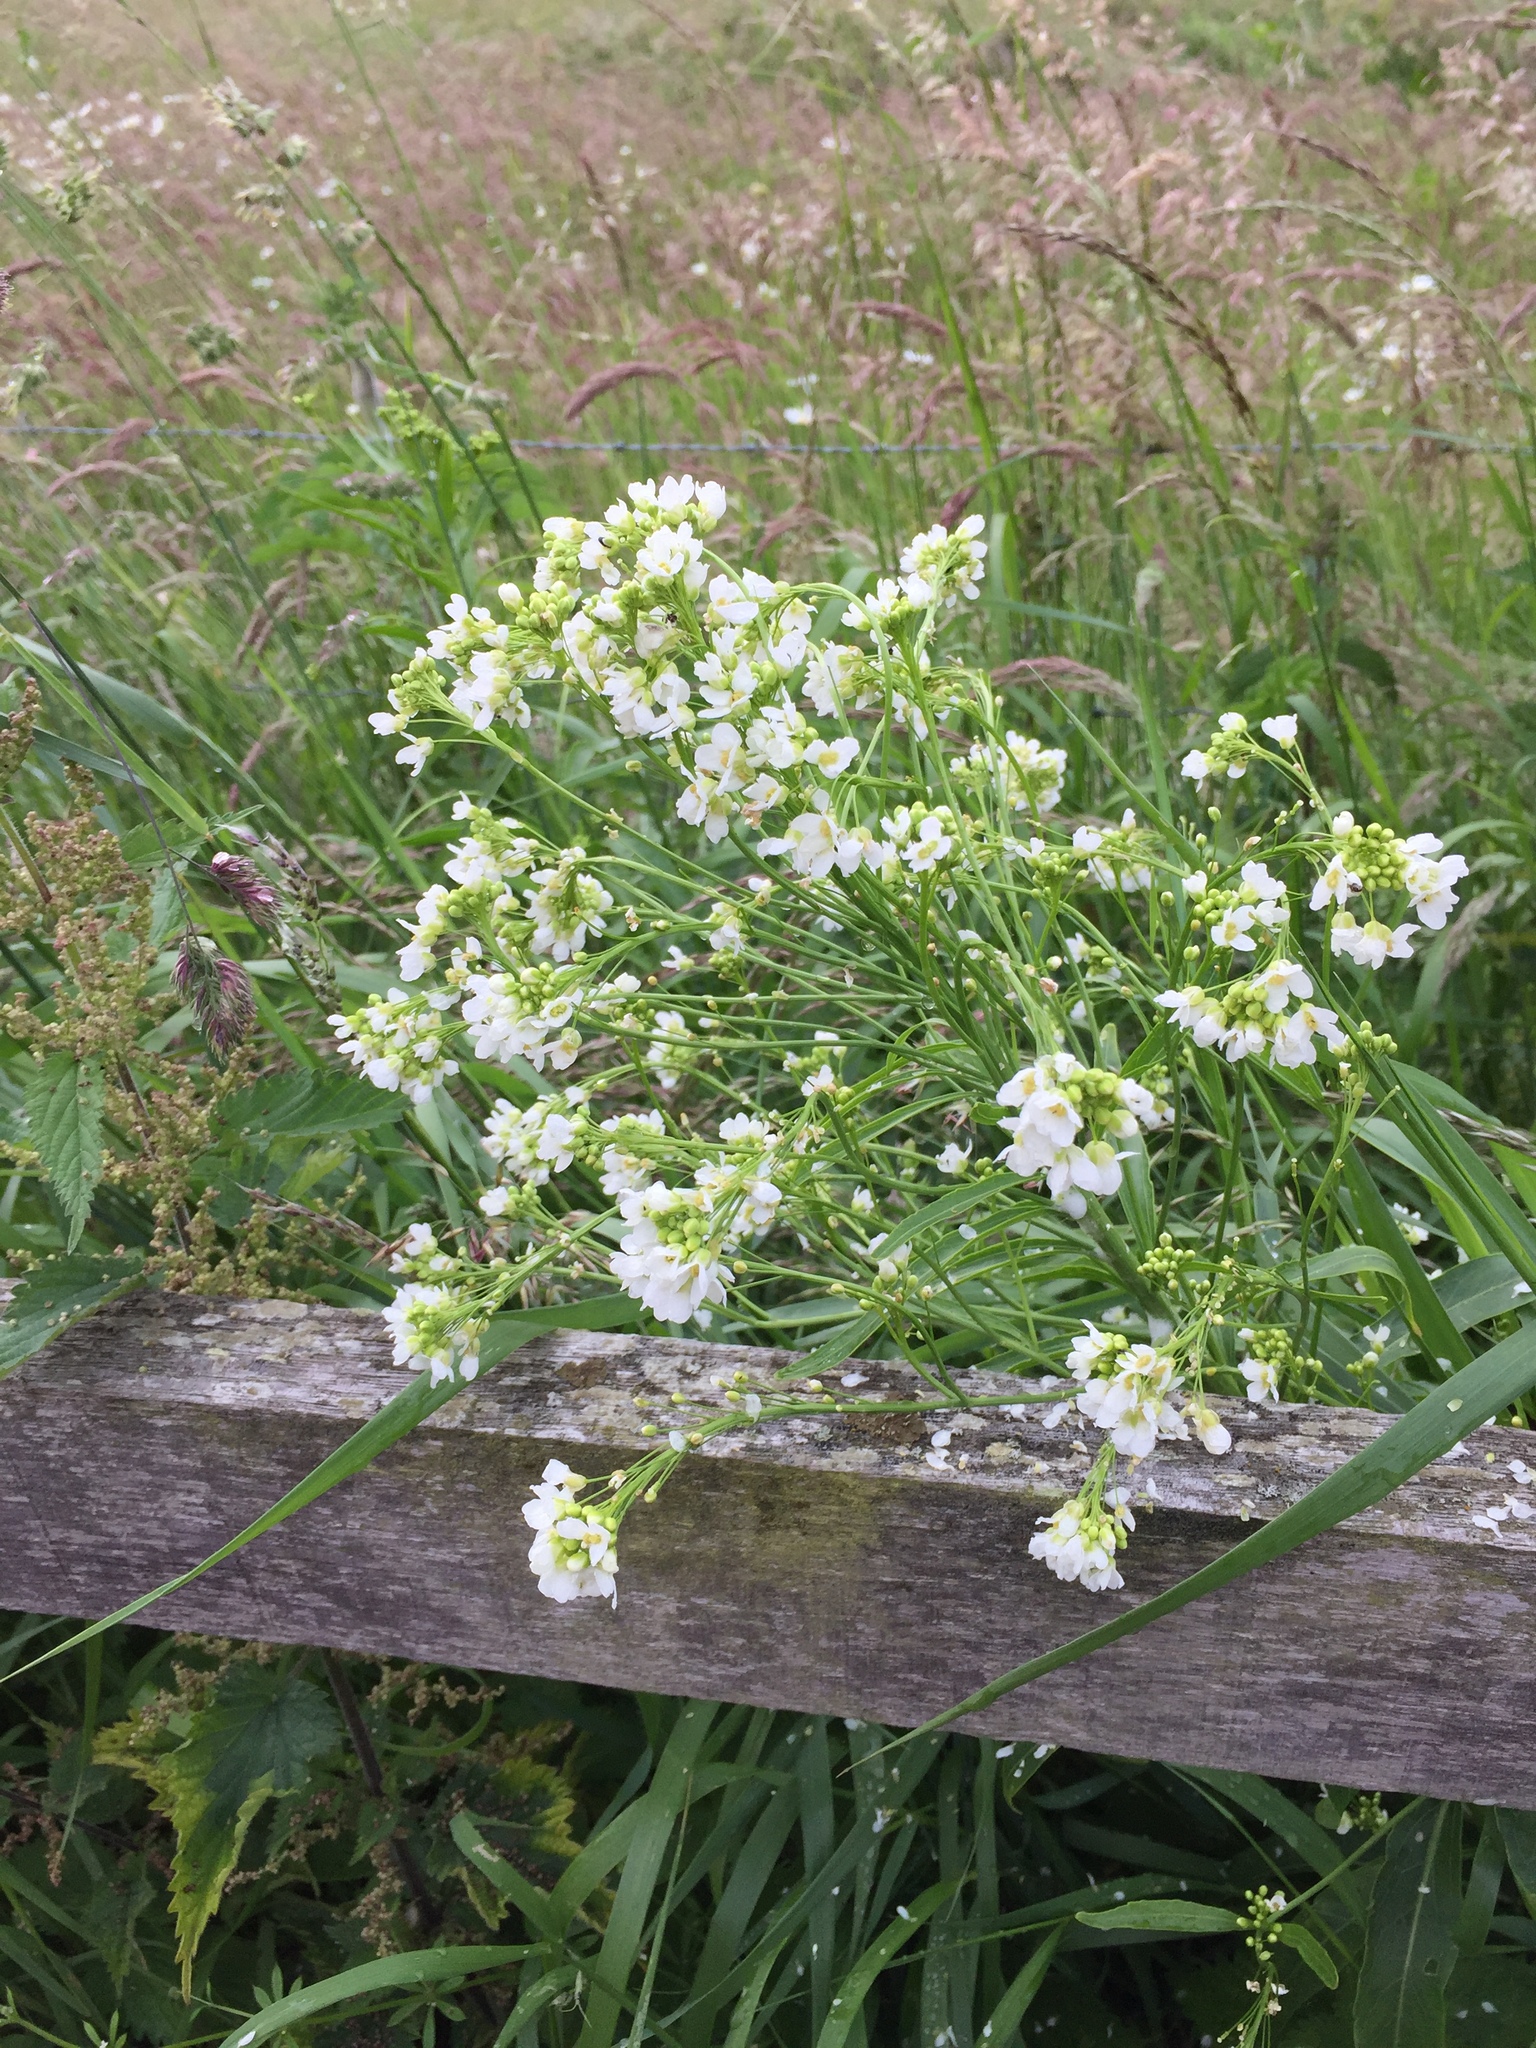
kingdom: Plantae
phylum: Tracheophyta
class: Magnoliopsida
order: Brassicales
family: Brassicaceae
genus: Armoracia
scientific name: Armoracia rusticana
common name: Horseradish
